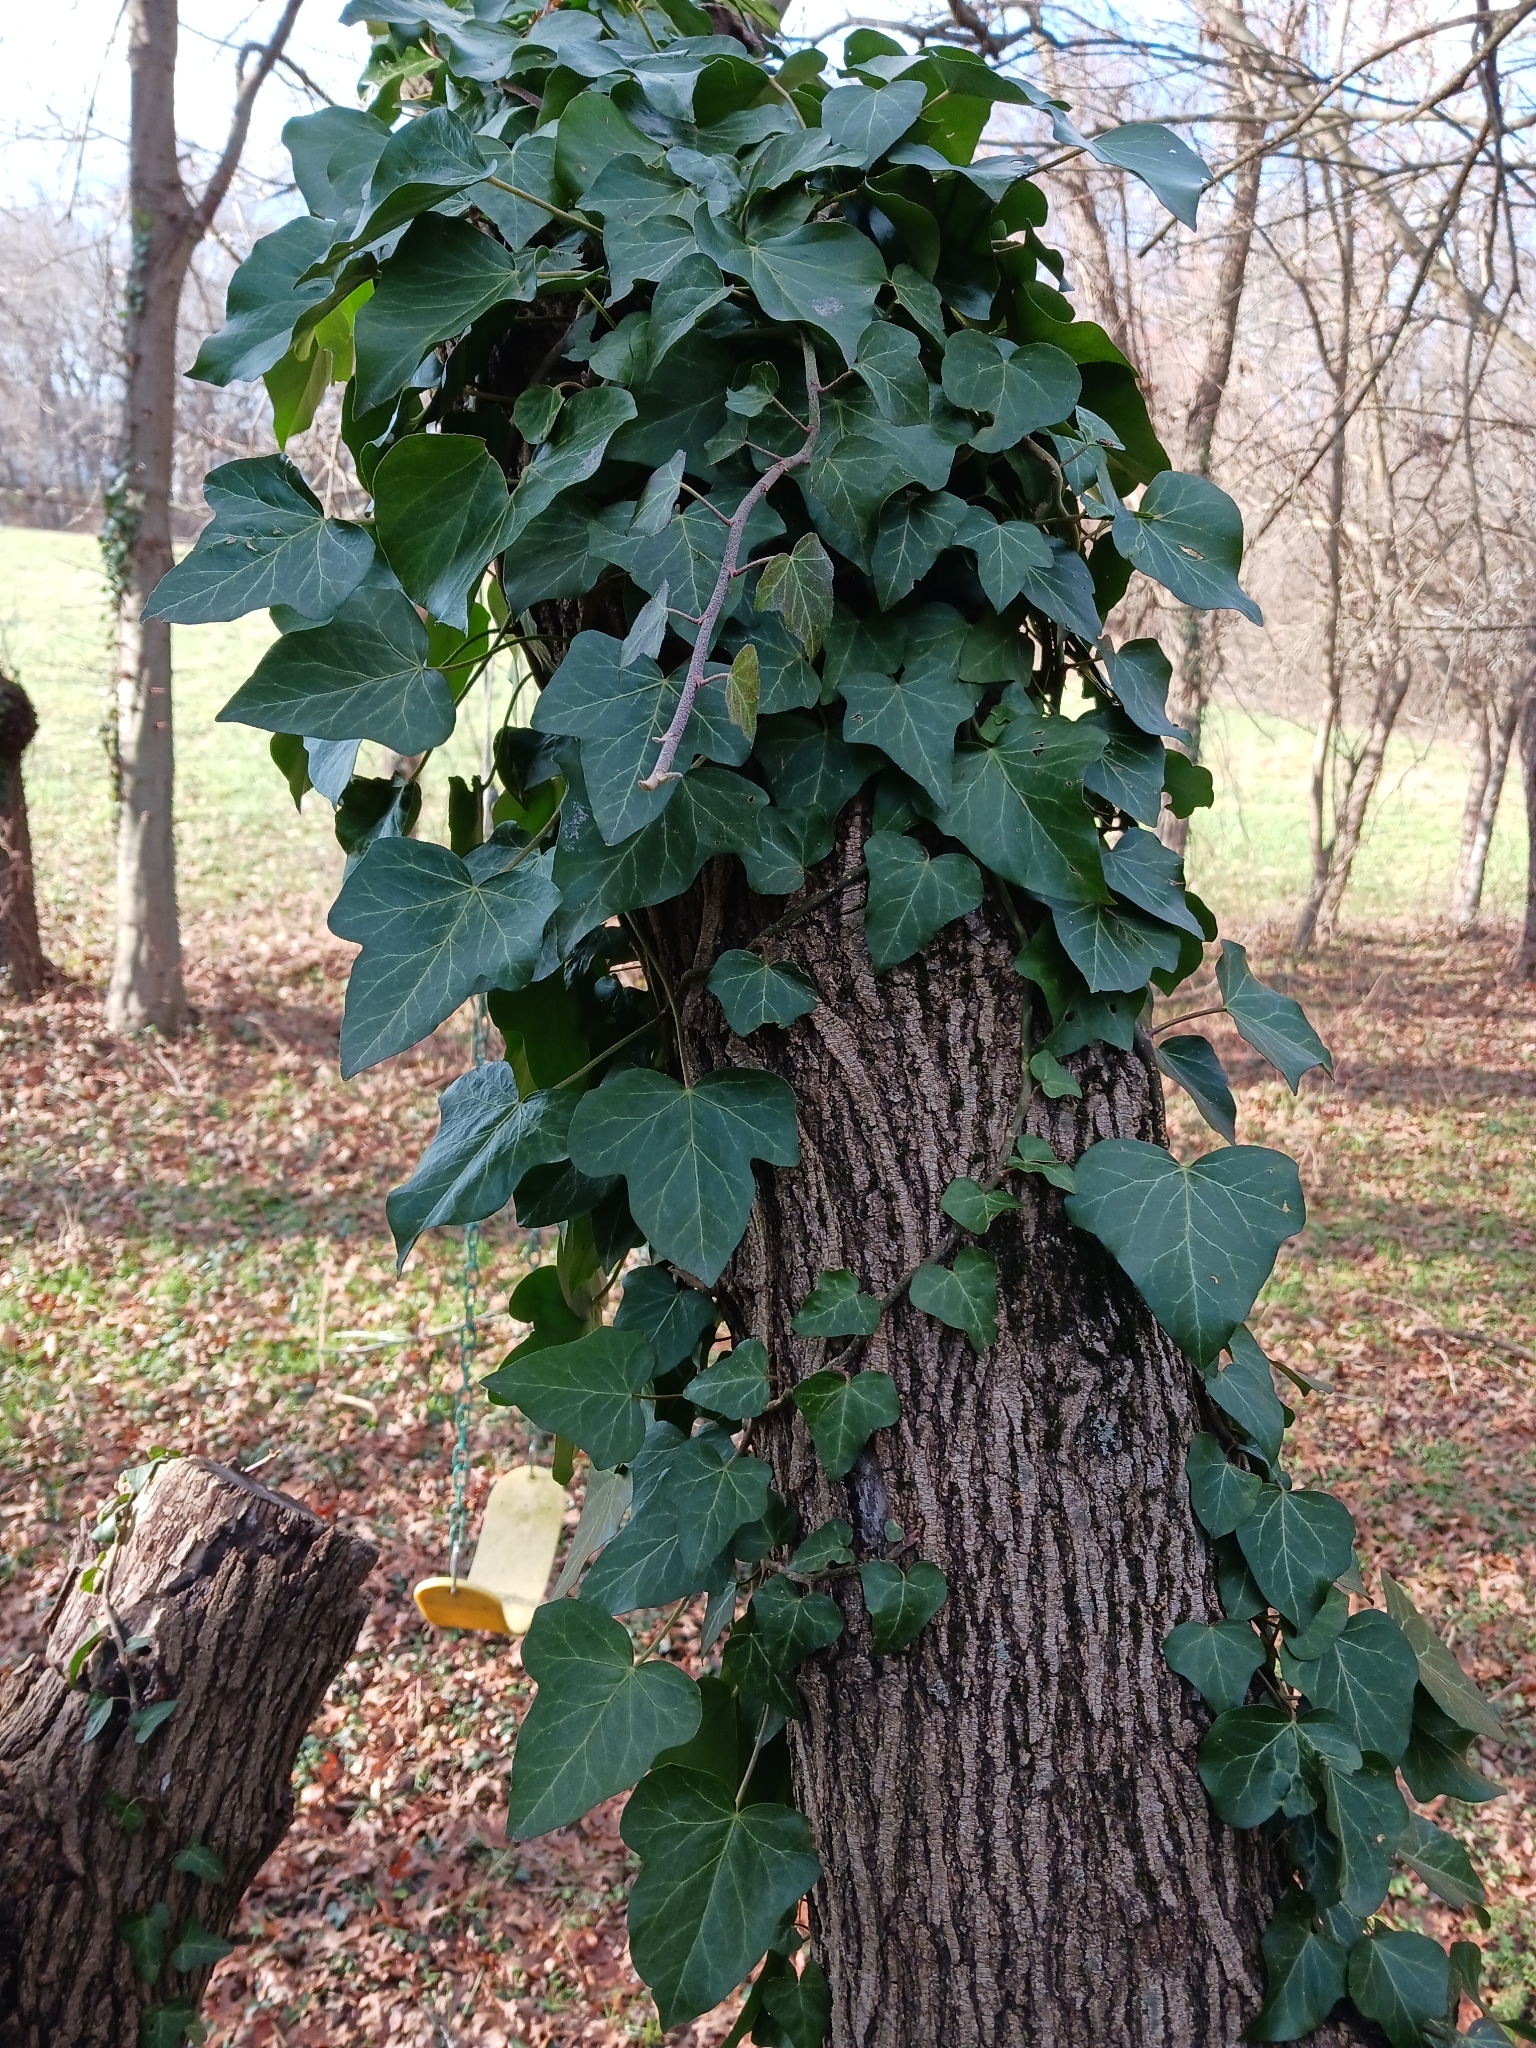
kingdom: Plantae
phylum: Tracheophyta
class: Magnoliopsida
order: Apiales
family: Araliaceae
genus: Hedera
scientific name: Hedera helix
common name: Ivy
